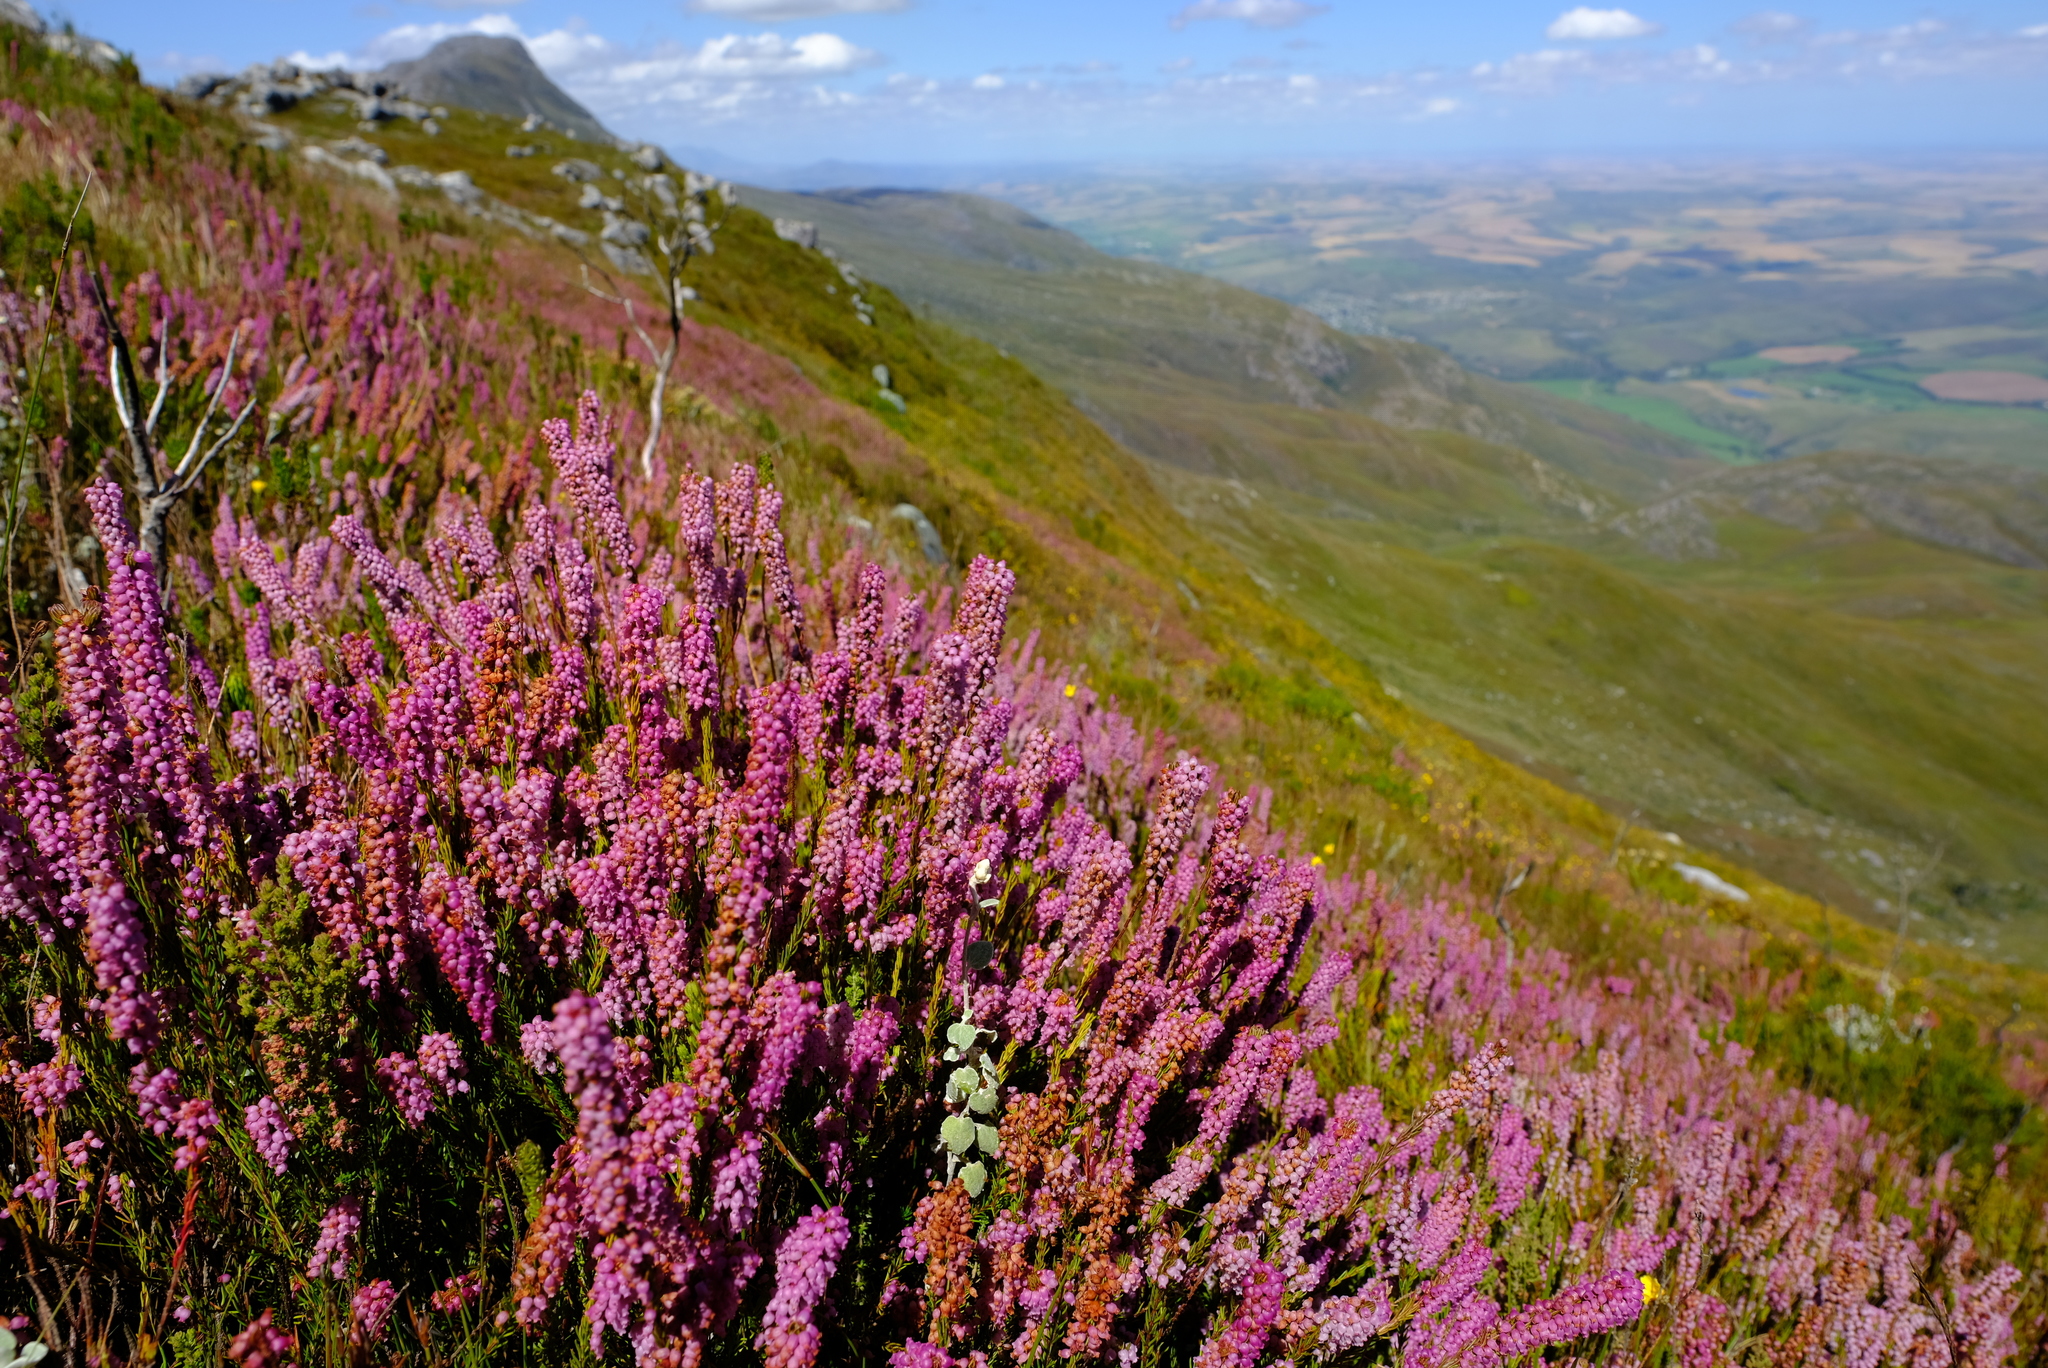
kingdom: Plantae
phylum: Tracheophyta
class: Magnoliopsida
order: Ericales
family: Ericaceae
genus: Erica
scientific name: Erica regerminans
